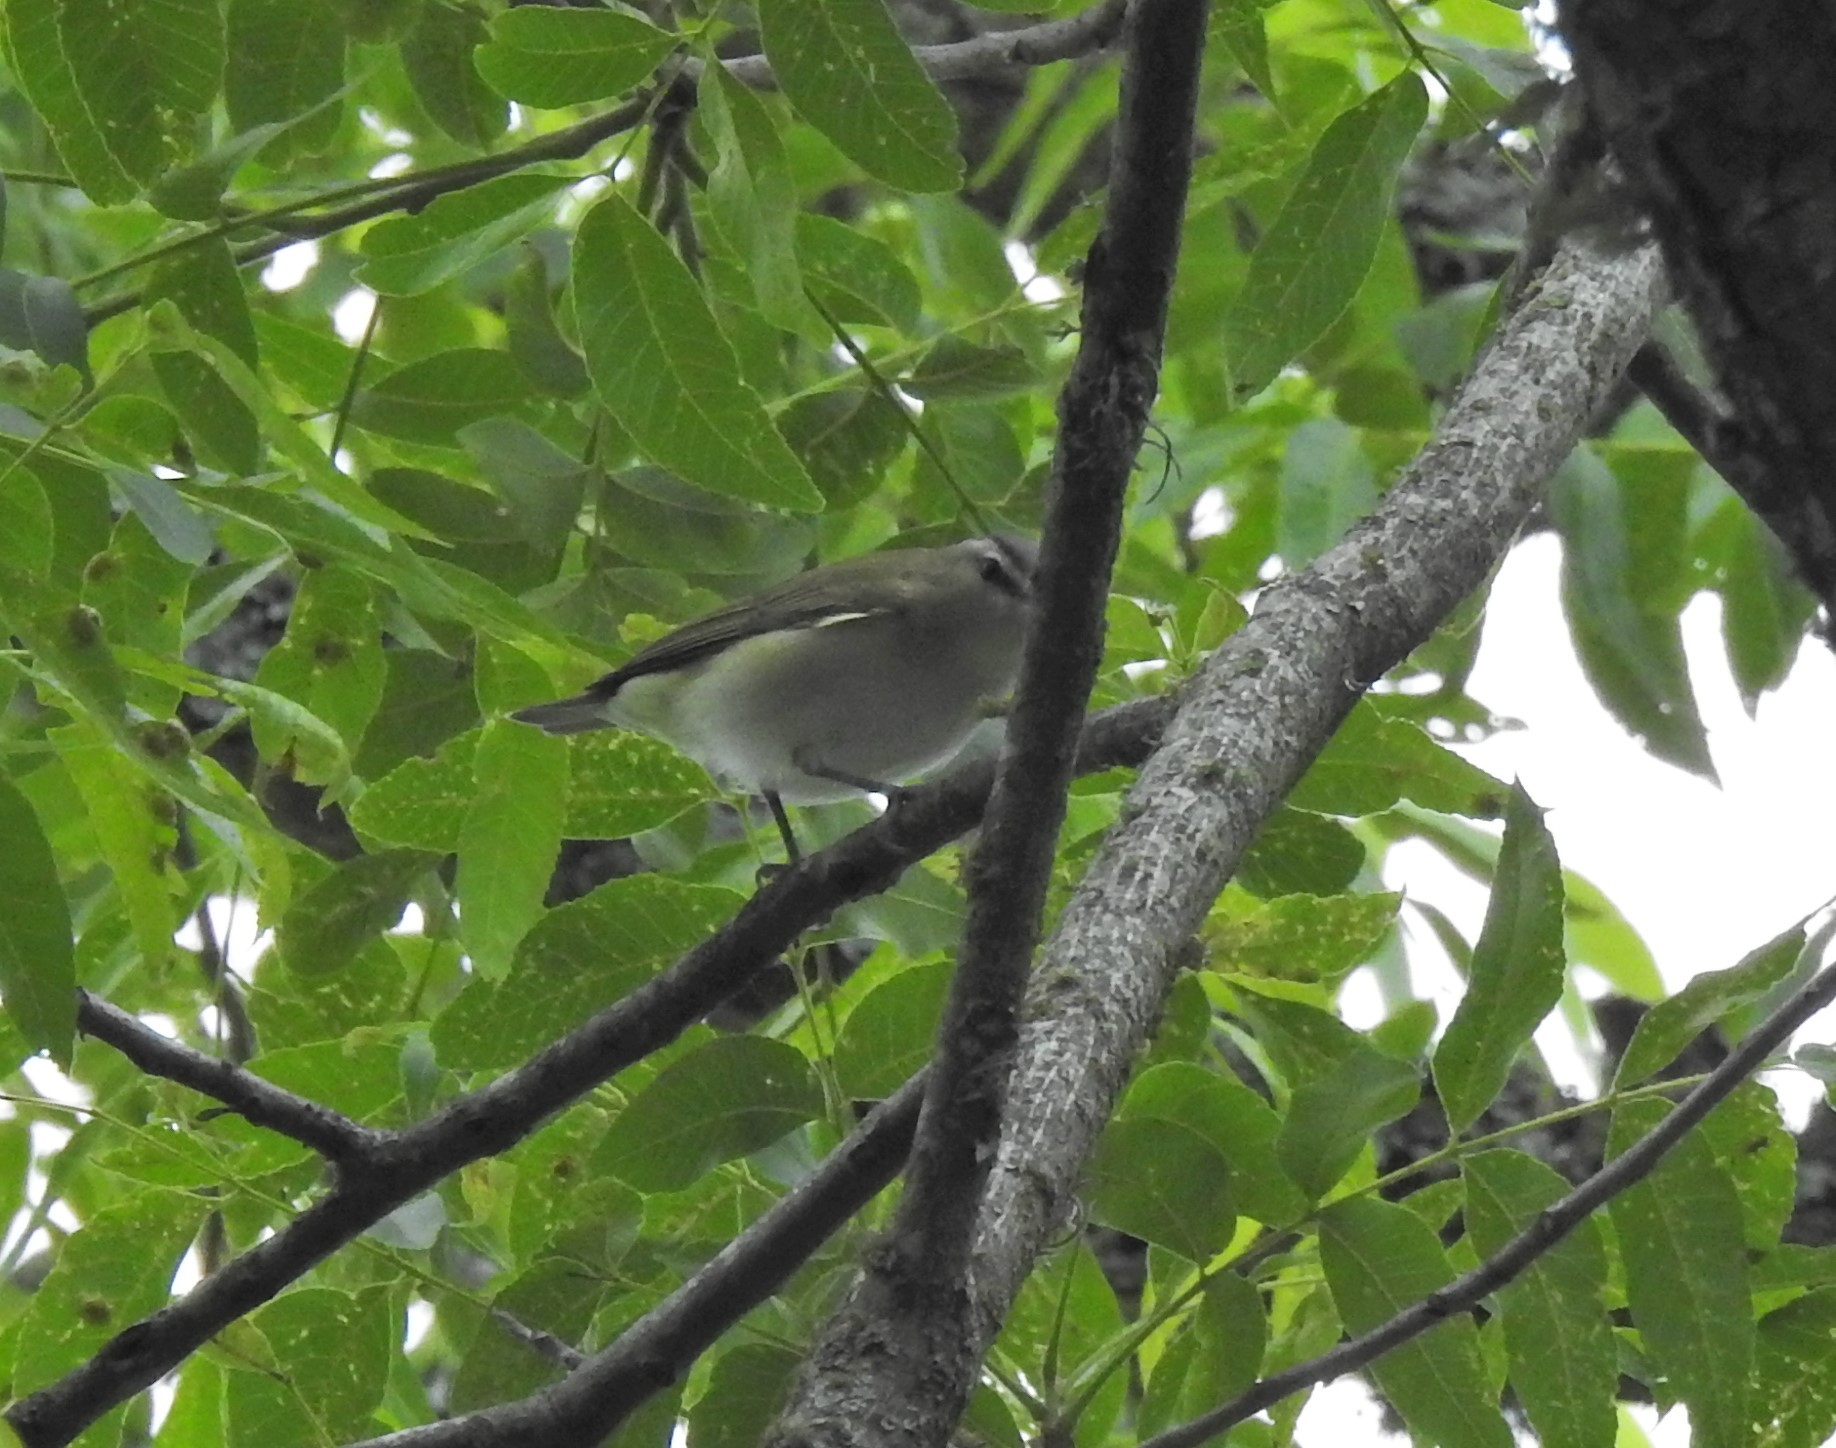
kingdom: Animalia
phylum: Chordata
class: Aves
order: Passeriformes
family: Vireonidae
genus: Vireo
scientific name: Vireo olivaceus
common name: Red-eyed vireo
